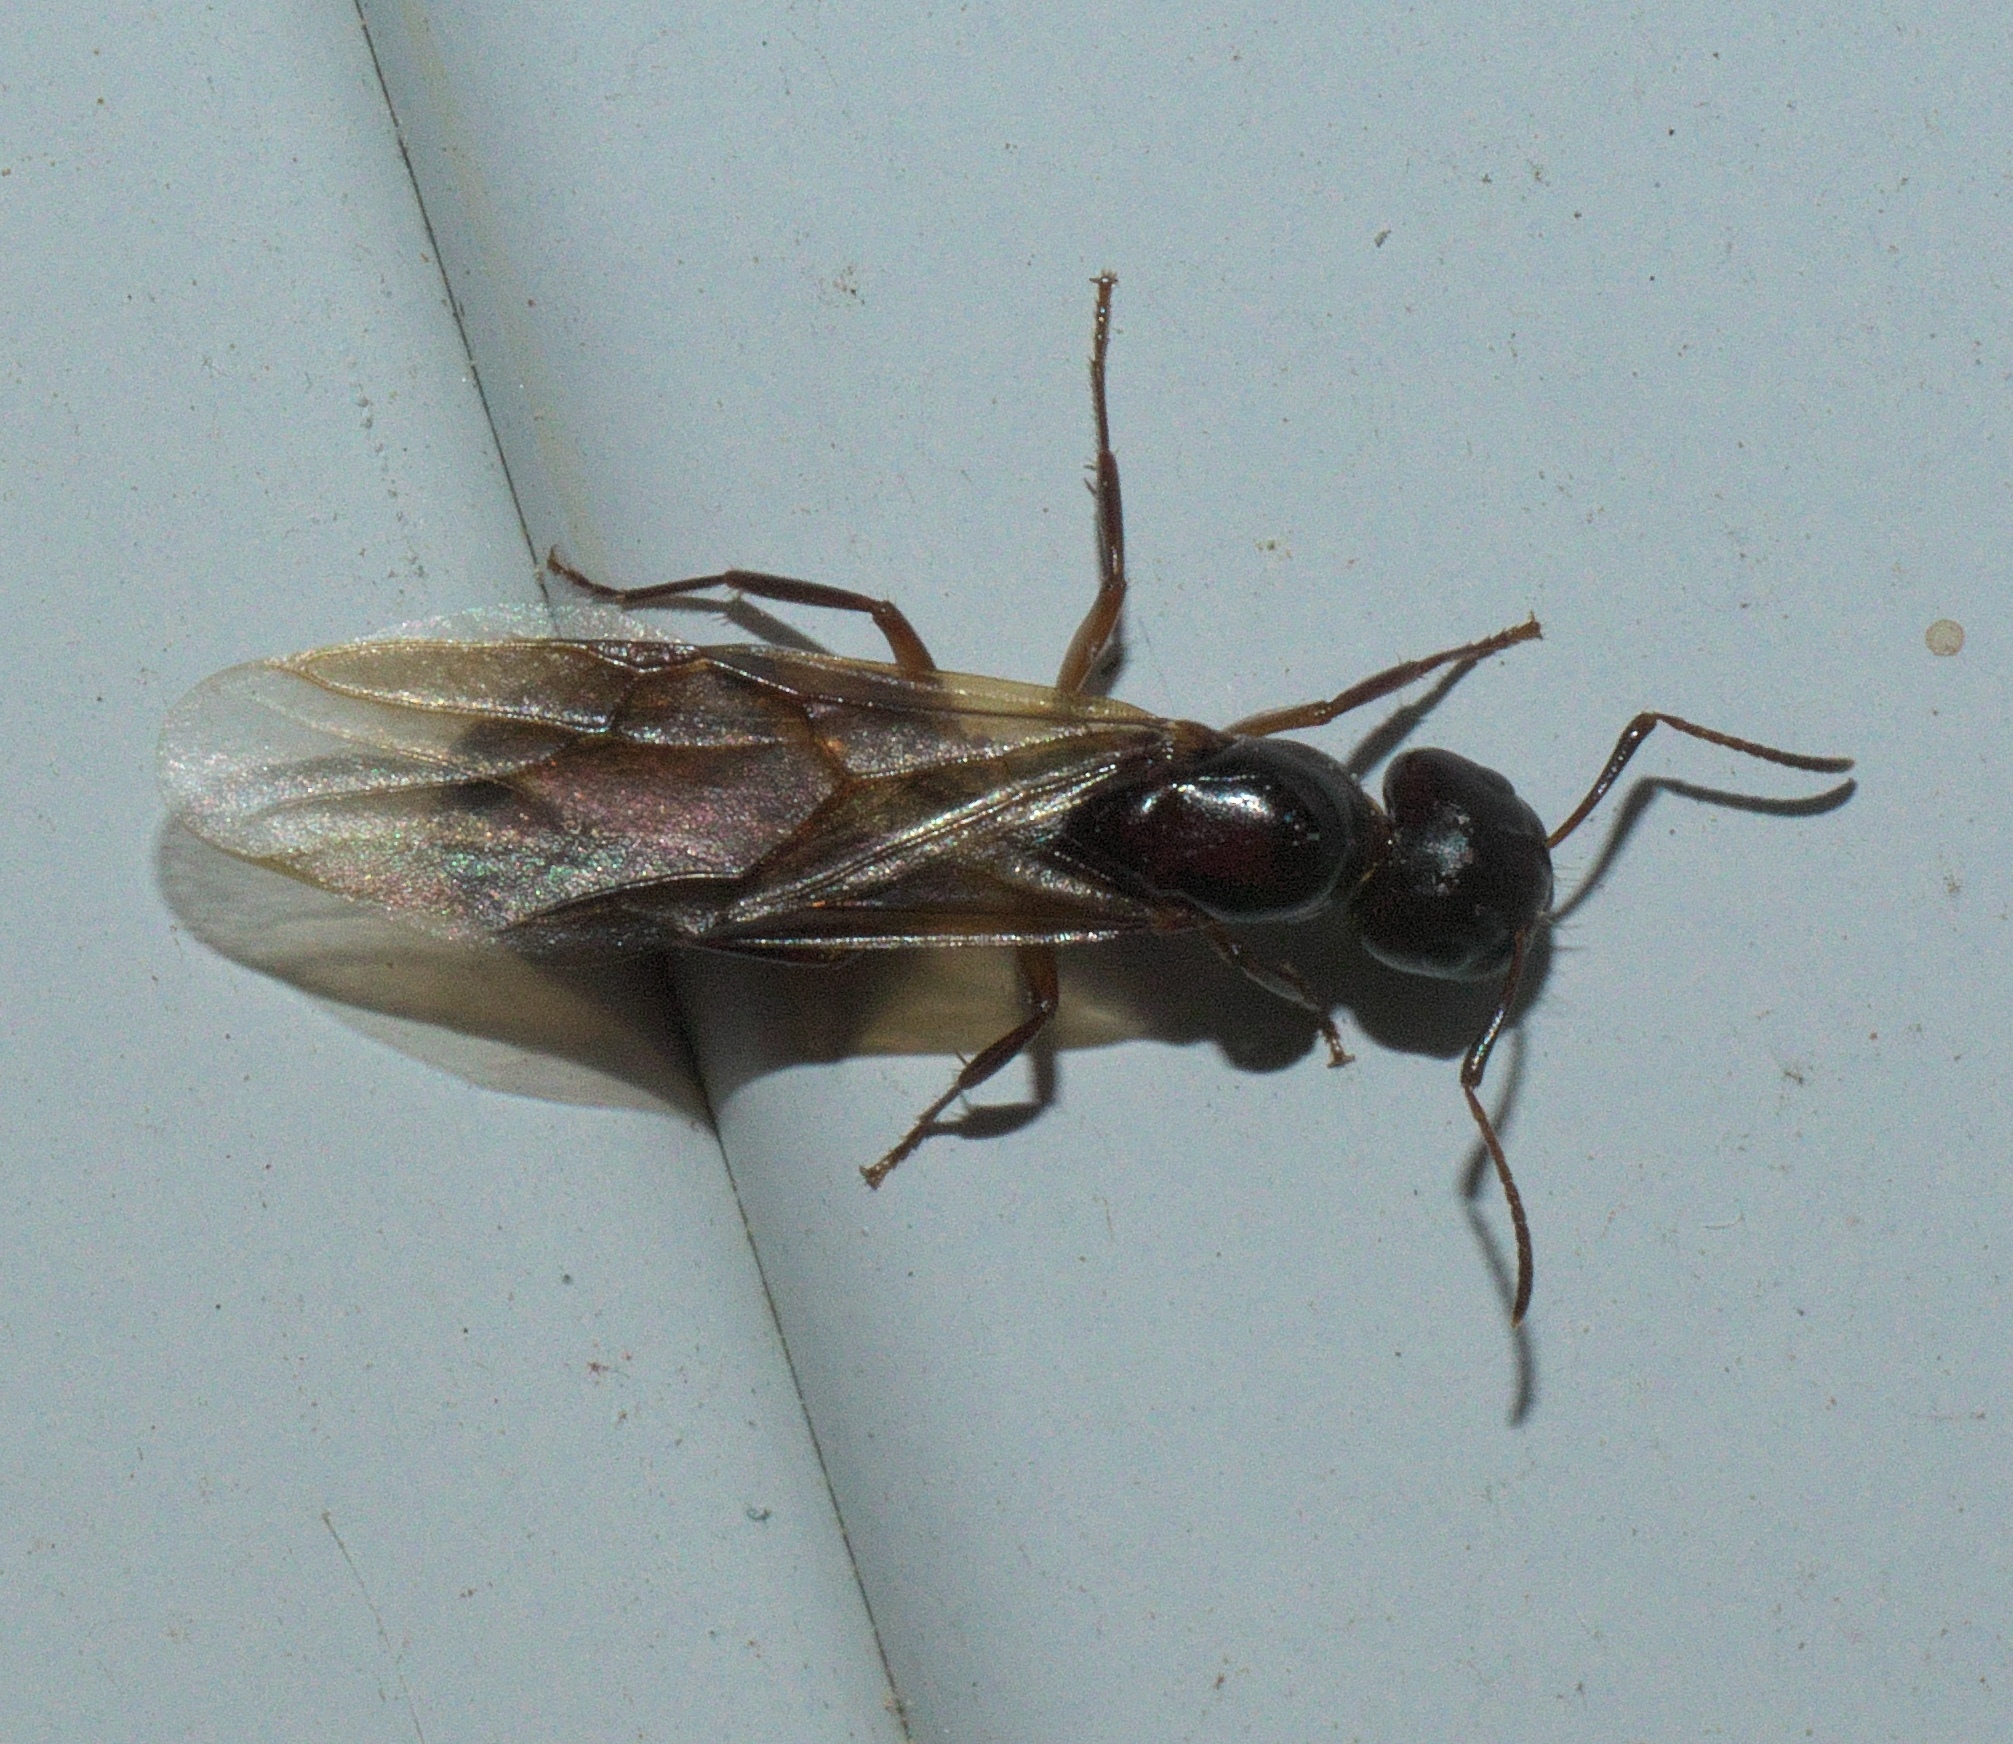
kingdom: Animalia
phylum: Arthropoda
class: Insecta
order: Hymenoptera
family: Formicidae
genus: Camponotus
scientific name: Camponotus subbarbatus
